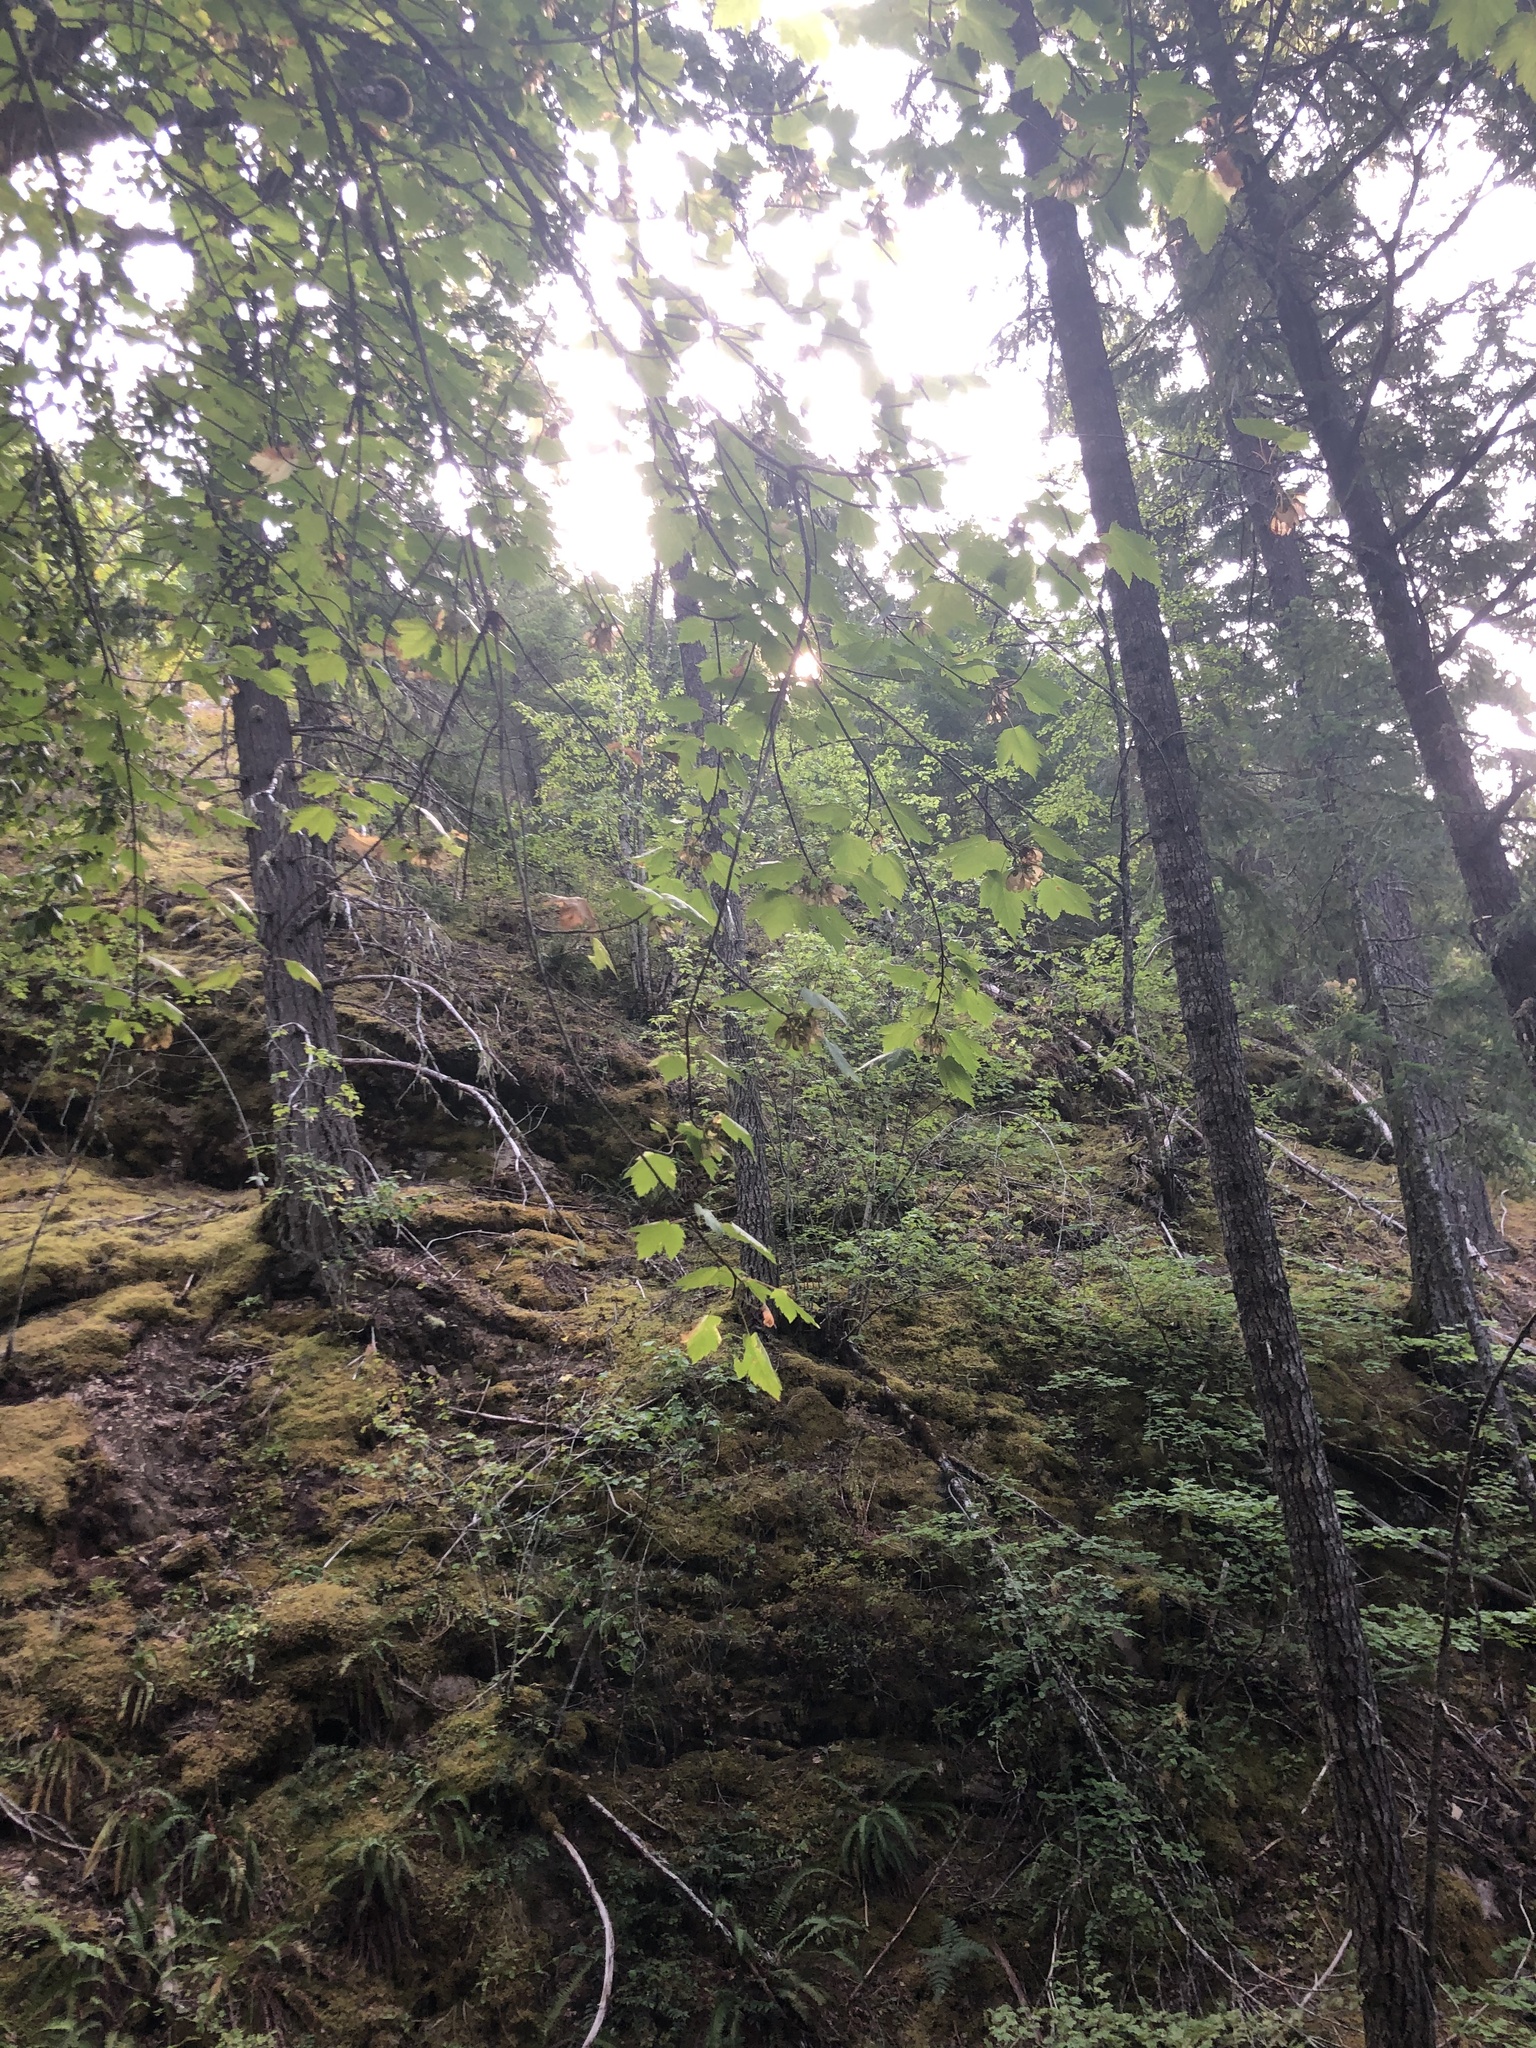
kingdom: Plantae
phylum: Tracheophyta
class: Magnoliopsida
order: Sapindales
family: Sapindaceae
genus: Acer
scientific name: Acer glabrum
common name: Rocky mountain maple
